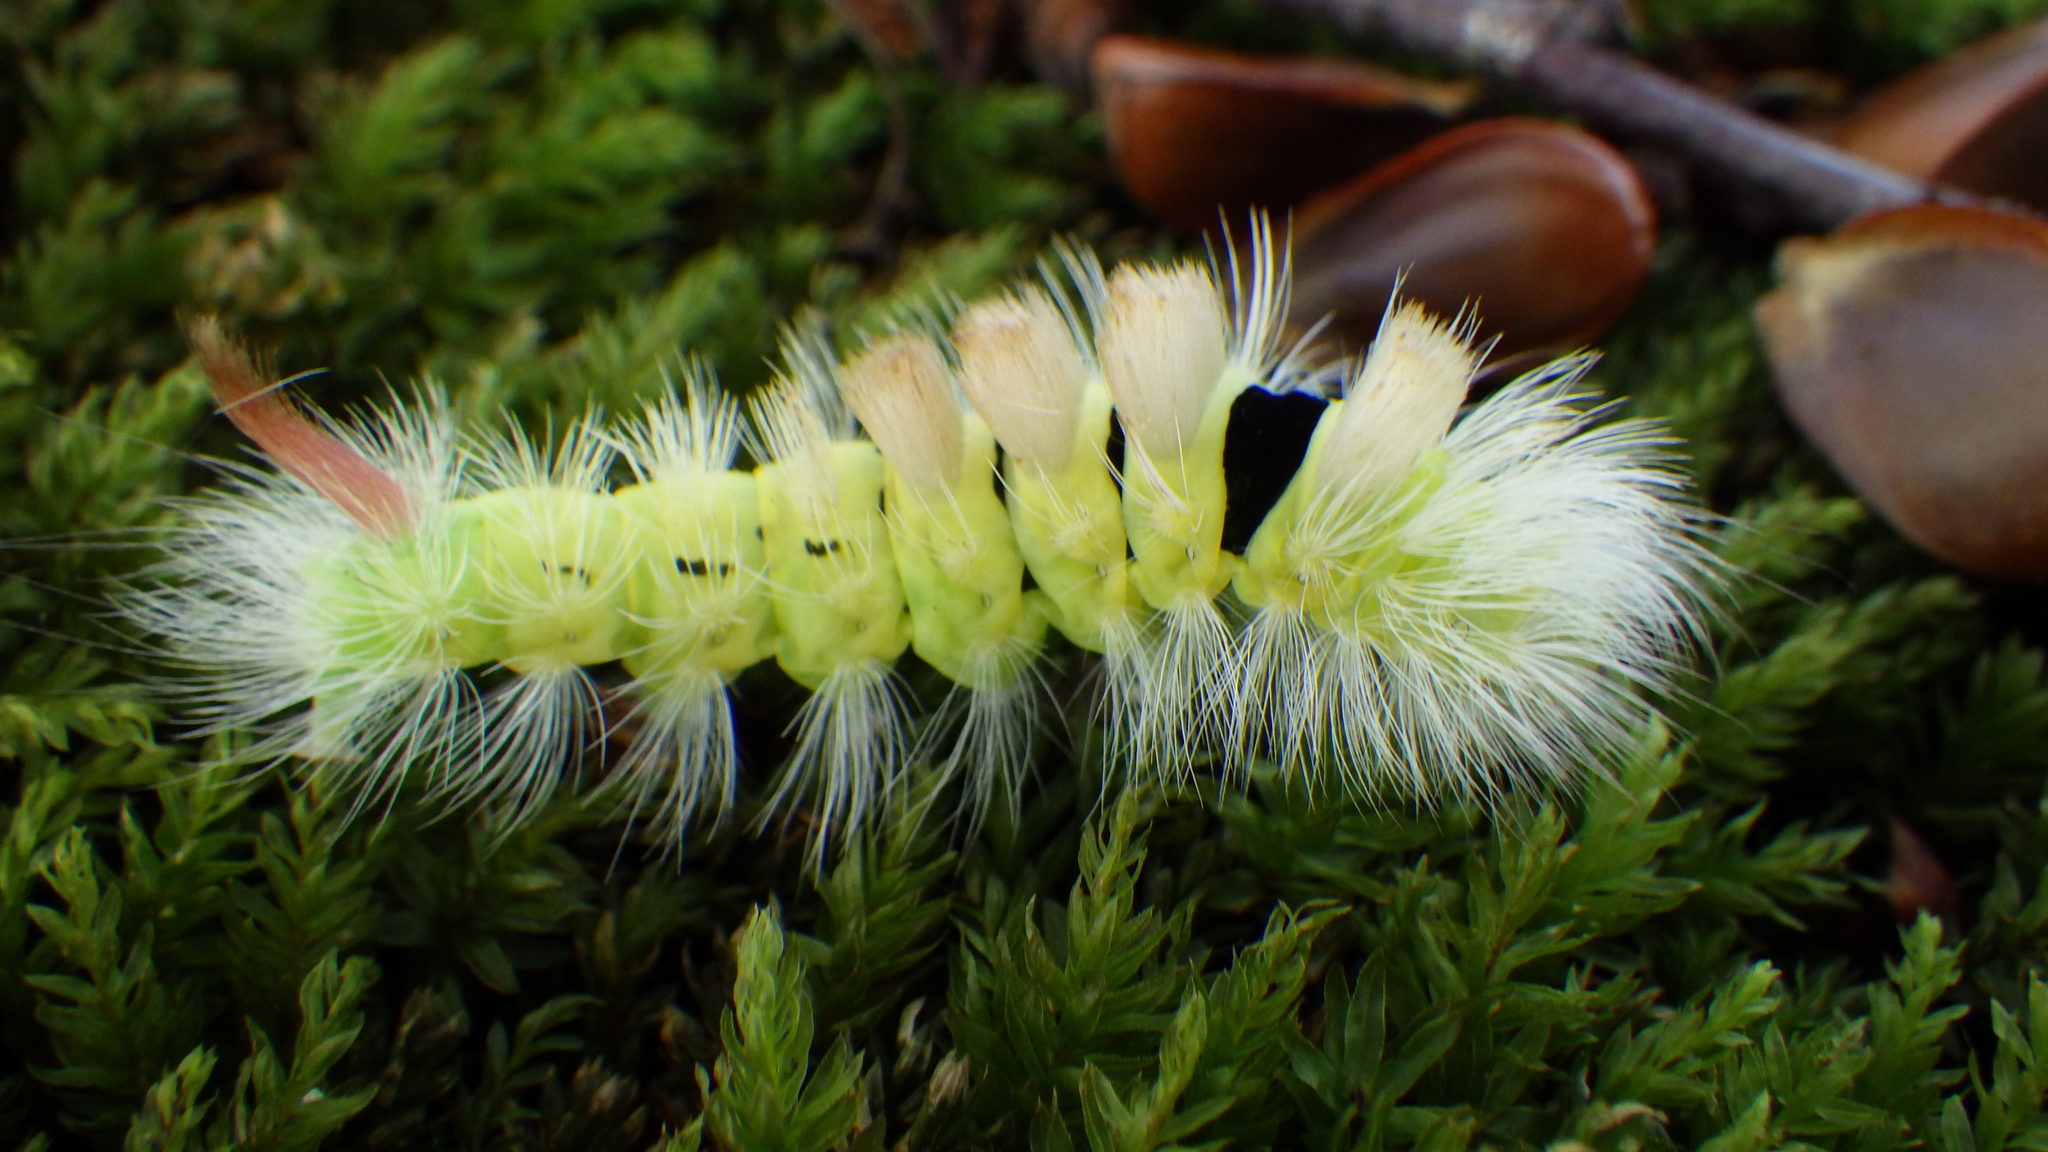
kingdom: Animalia
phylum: Arthropoda
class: Insecta
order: Lepidoptera
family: Erebidae
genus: Calliteara
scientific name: Calliteara pudibunda
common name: Pale tussock
